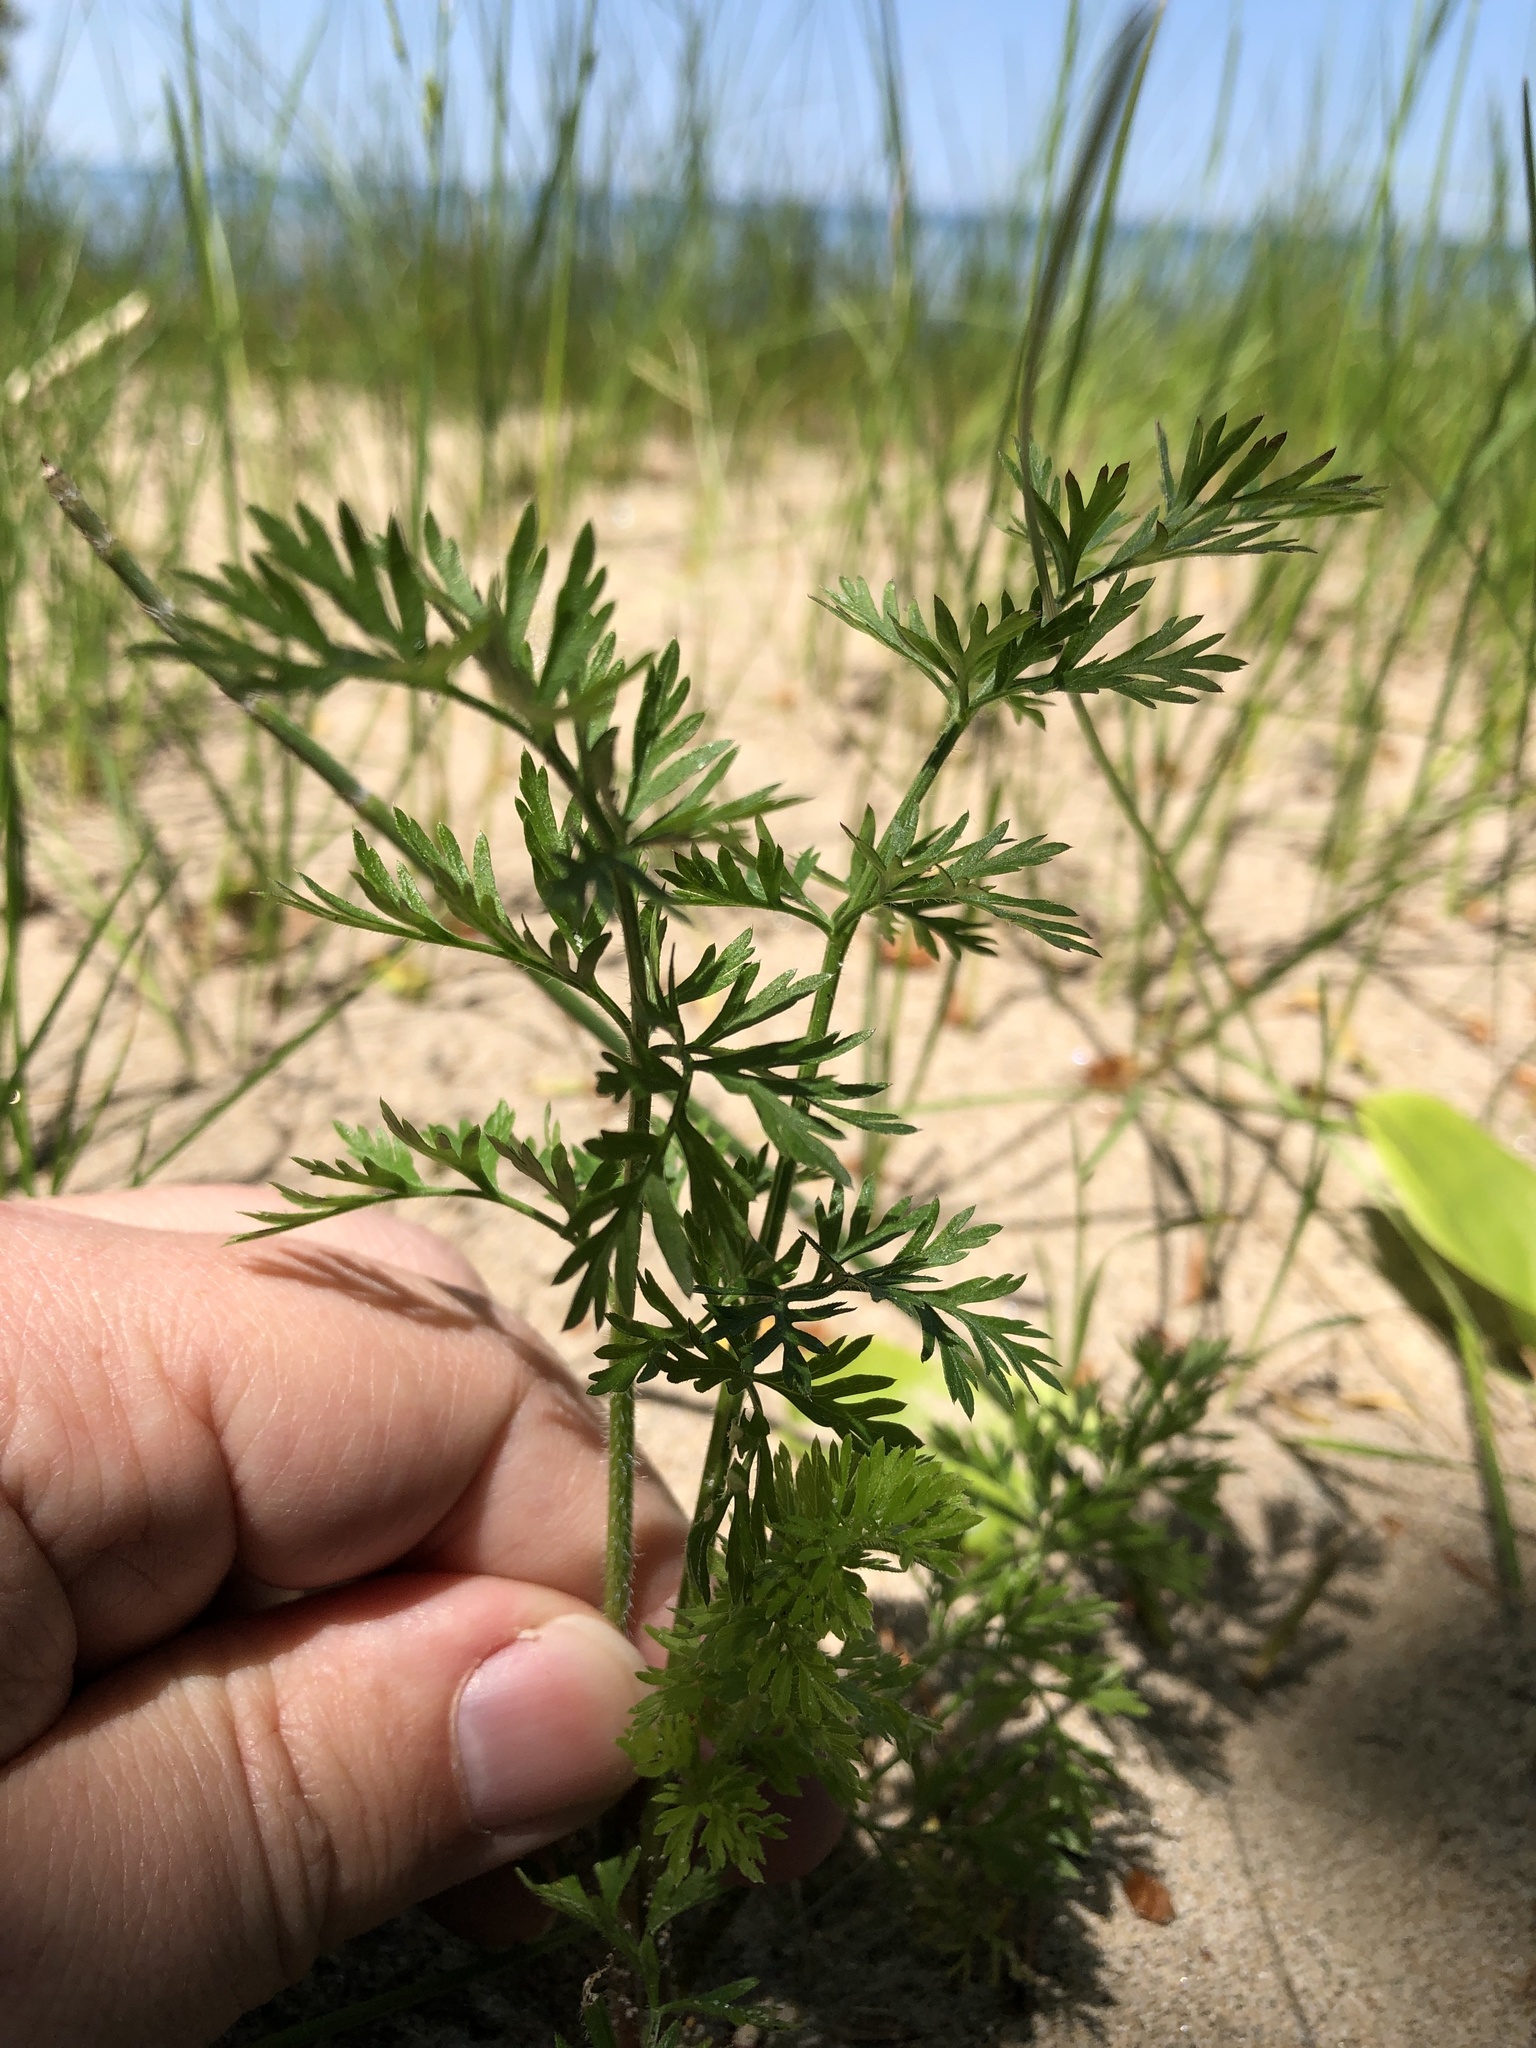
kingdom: Plantae
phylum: Tracheophyta
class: Magnoliopsida
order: Apiales
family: Apiaceae
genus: Daucus
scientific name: Daucus carota
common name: Wild carrot
